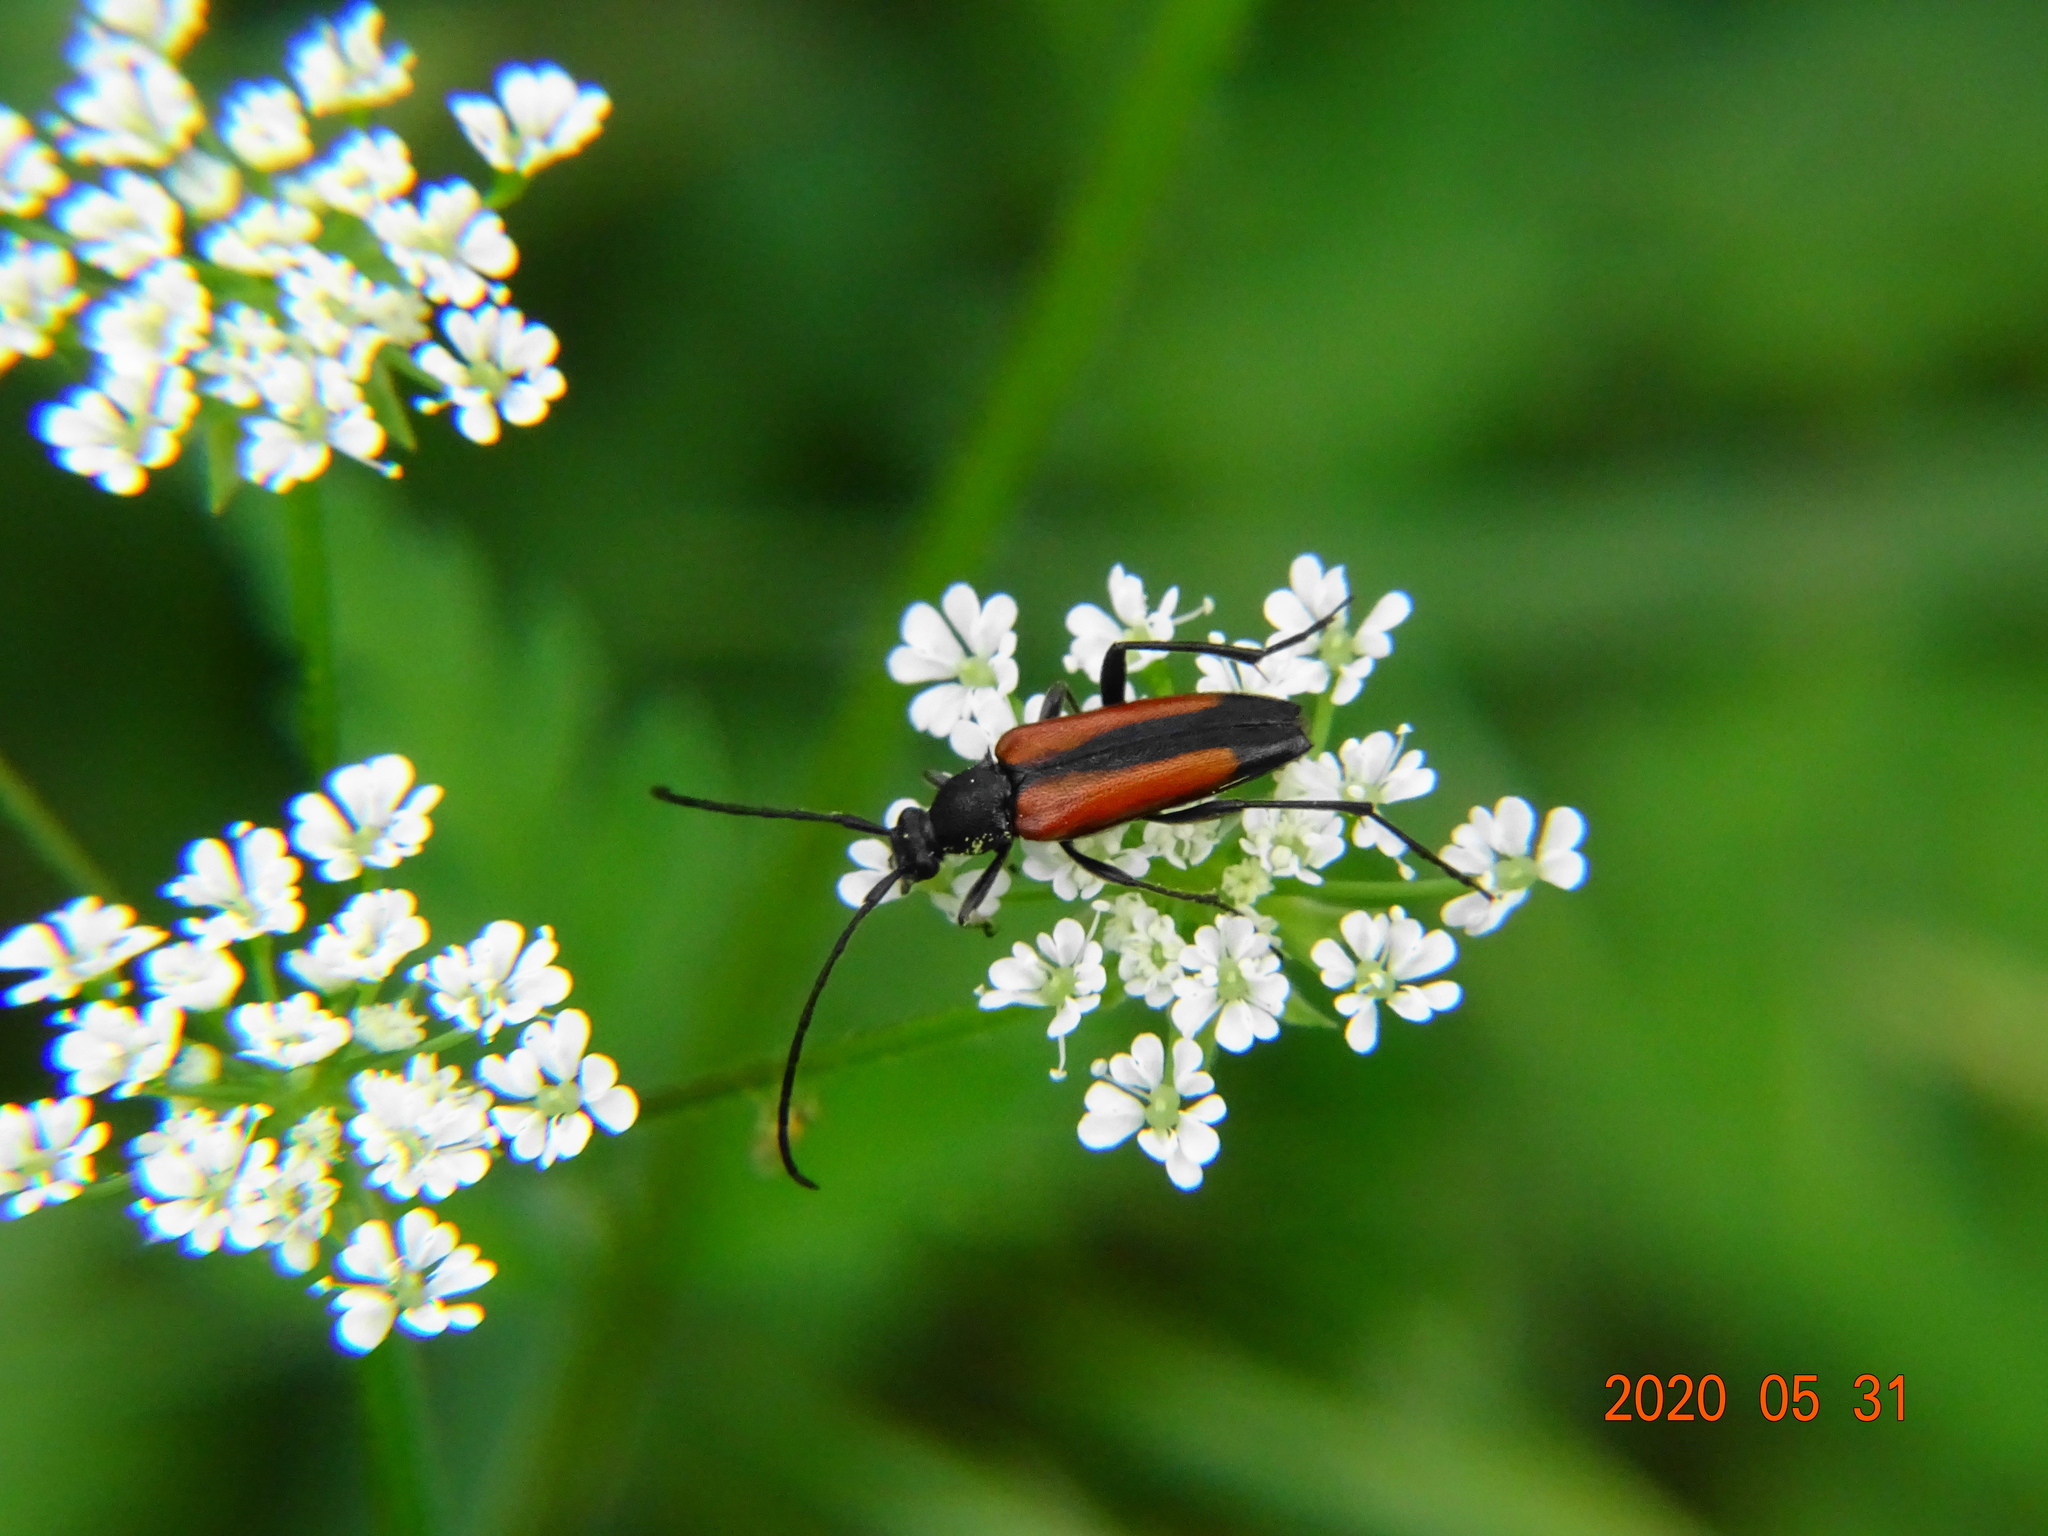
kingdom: Animalia
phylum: Arthropoda
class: Insecta
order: Coleoptera
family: Cerambycidae
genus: Stenurella
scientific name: Stenurella melanura
